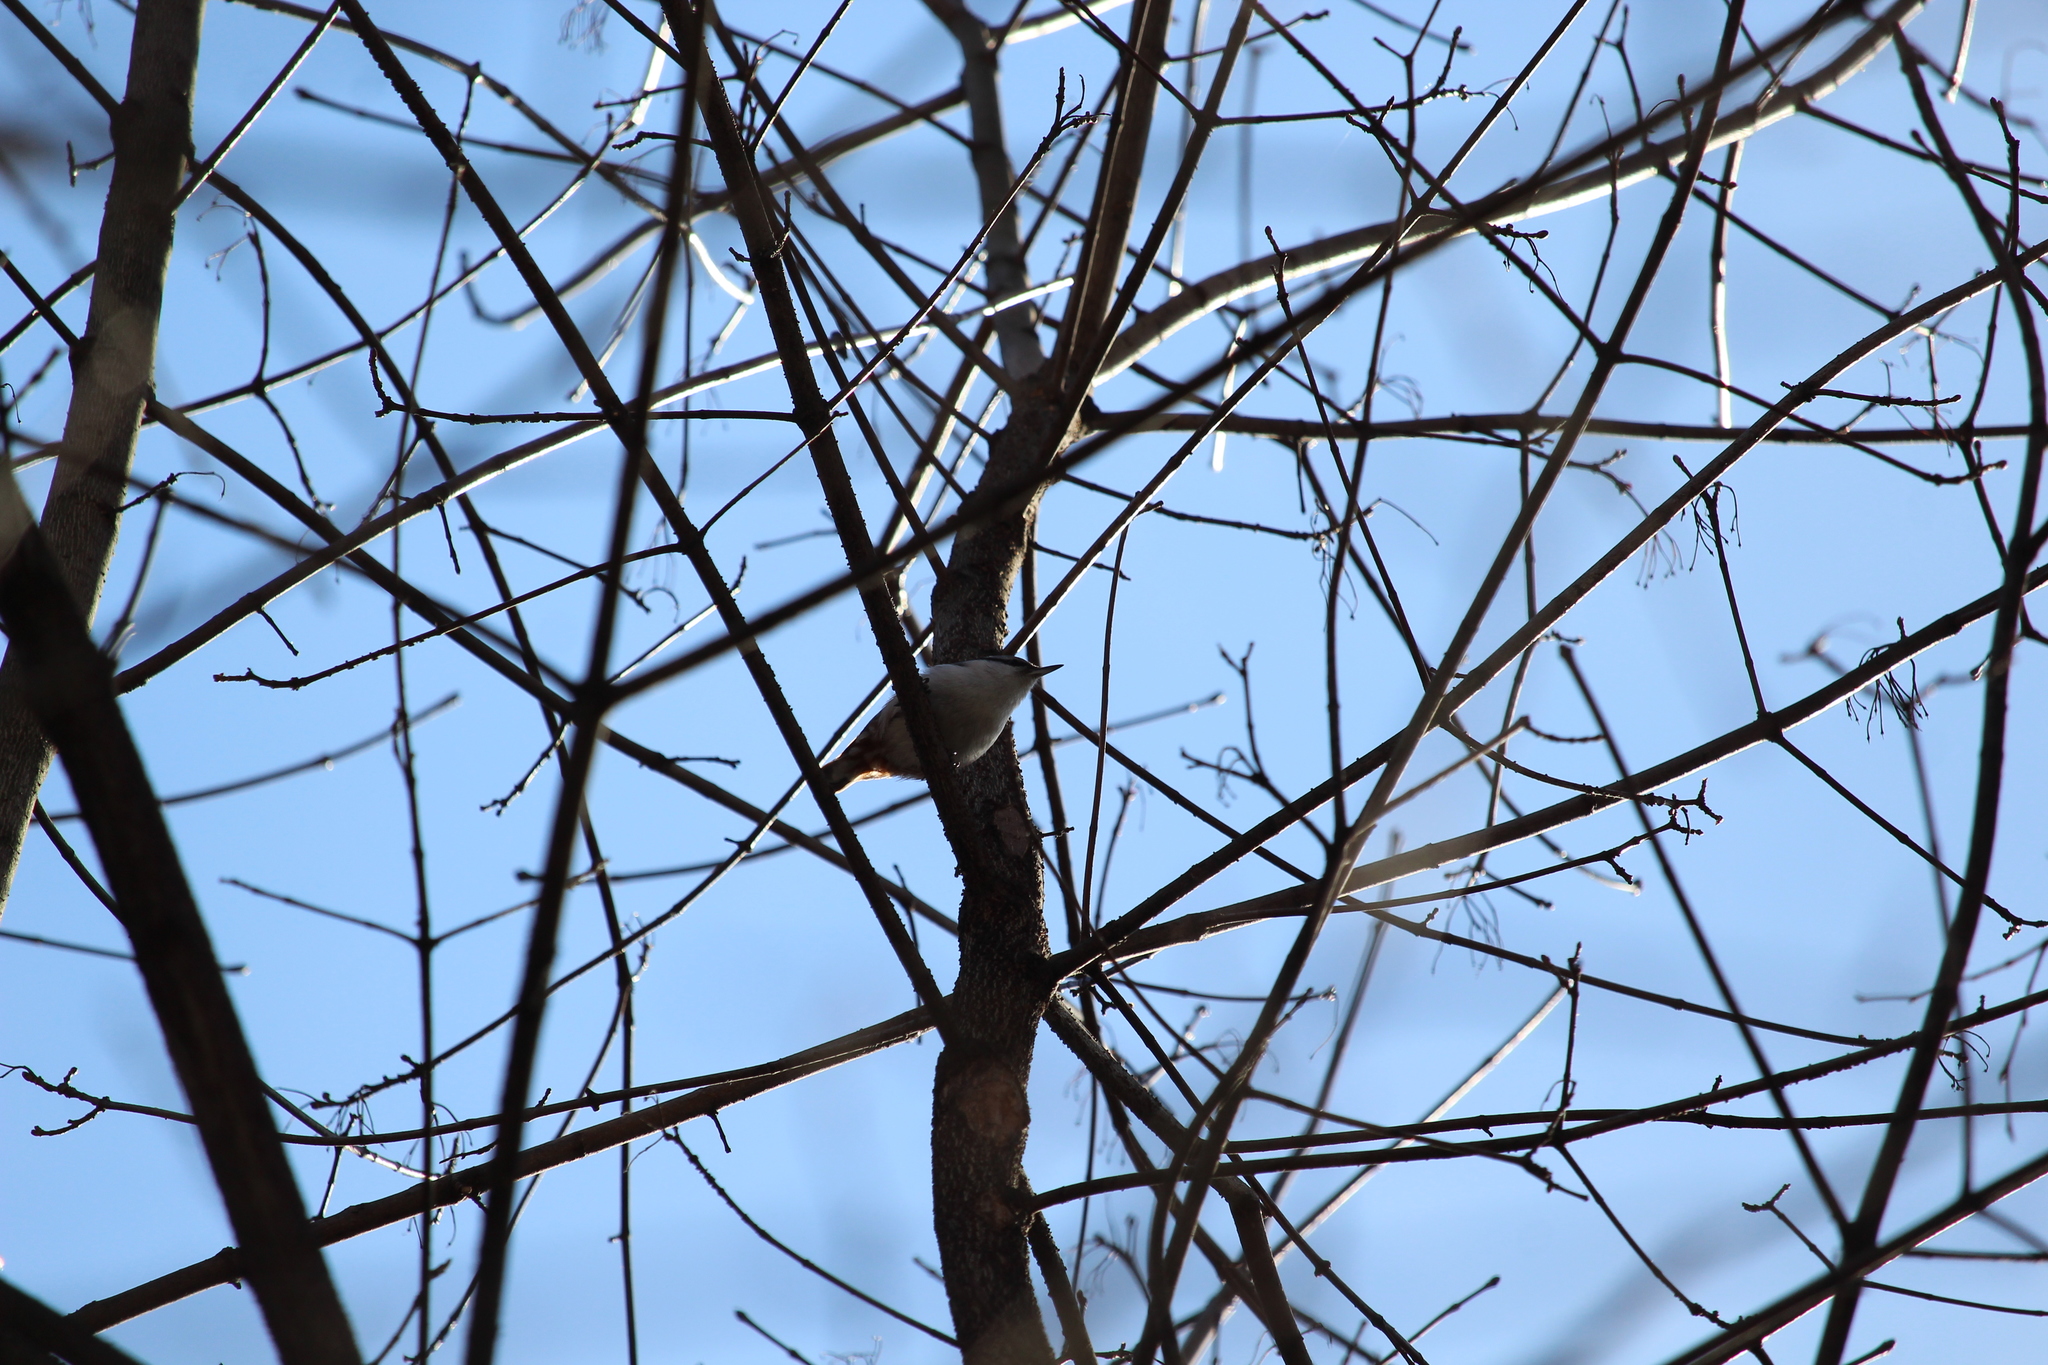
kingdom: Animalia
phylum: Chordata
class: Aves
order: Passeriformes
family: Sittidae
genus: Sitta
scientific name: Sitta europaea
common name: Eurasian nuthatch
